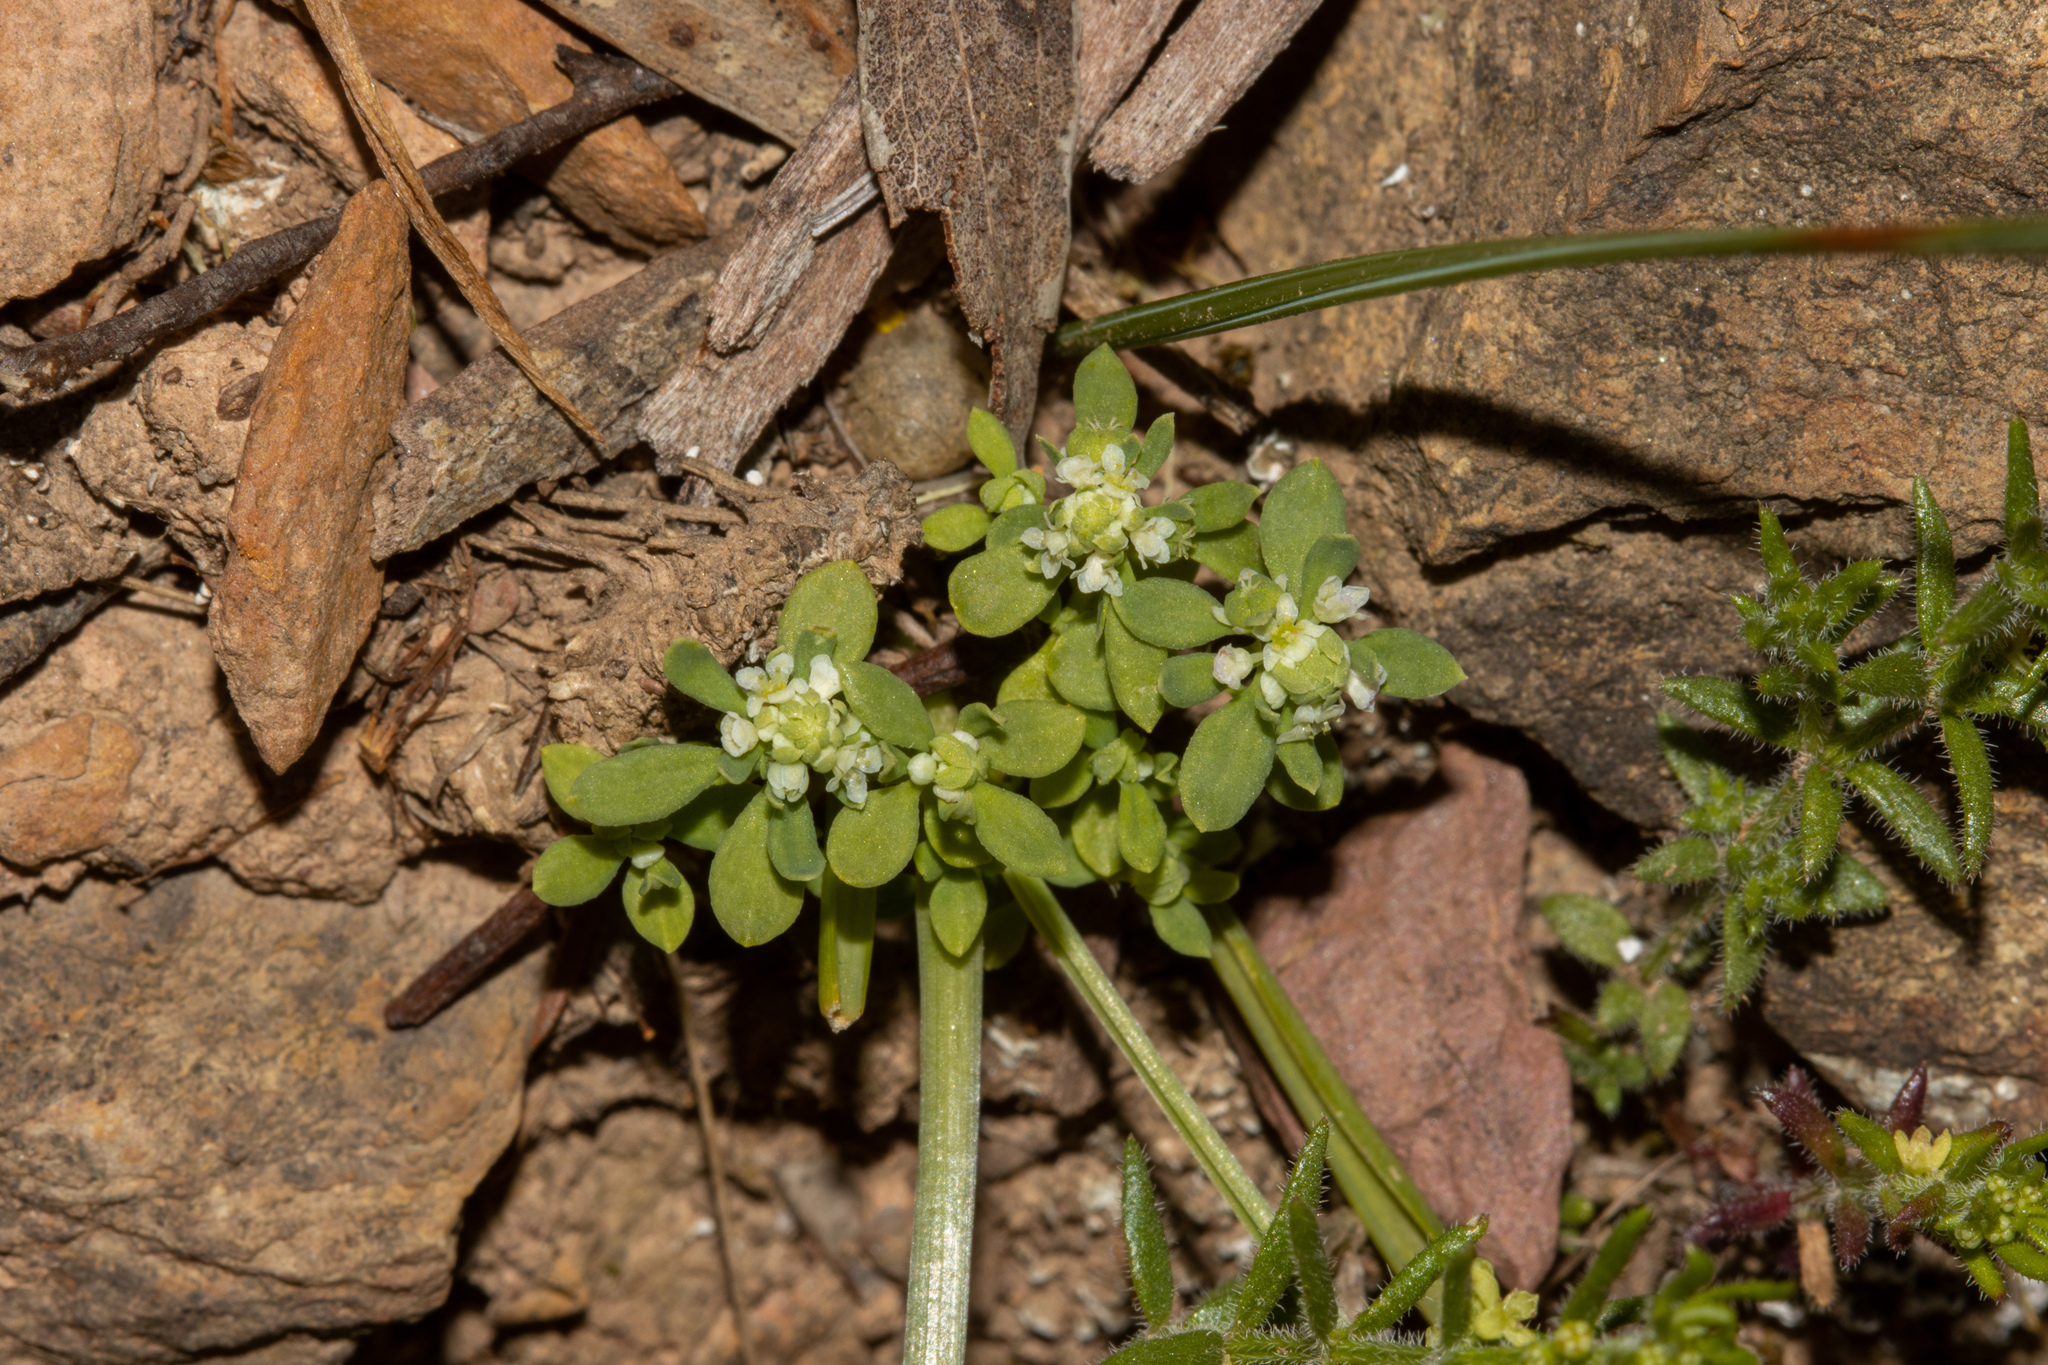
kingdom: Plantae
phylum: Tracheophyta
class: Magnoliopsida
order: Malpighiales
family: Phyllanthaceae
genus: Poranthera
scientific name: Poranthera microphylla
